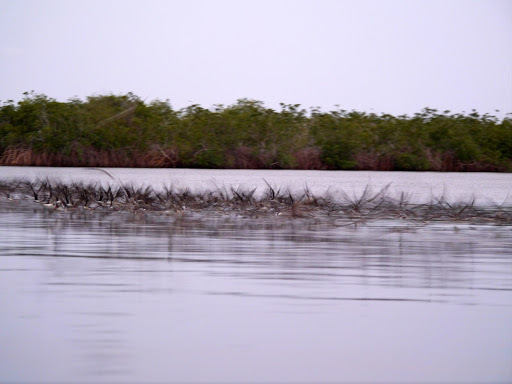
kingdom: Animalia
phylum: Chordata
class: Aves
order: Charadriiformes
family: Laridae
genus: Rynchops
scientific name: Rynchops flavirostris
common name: African skimmer
